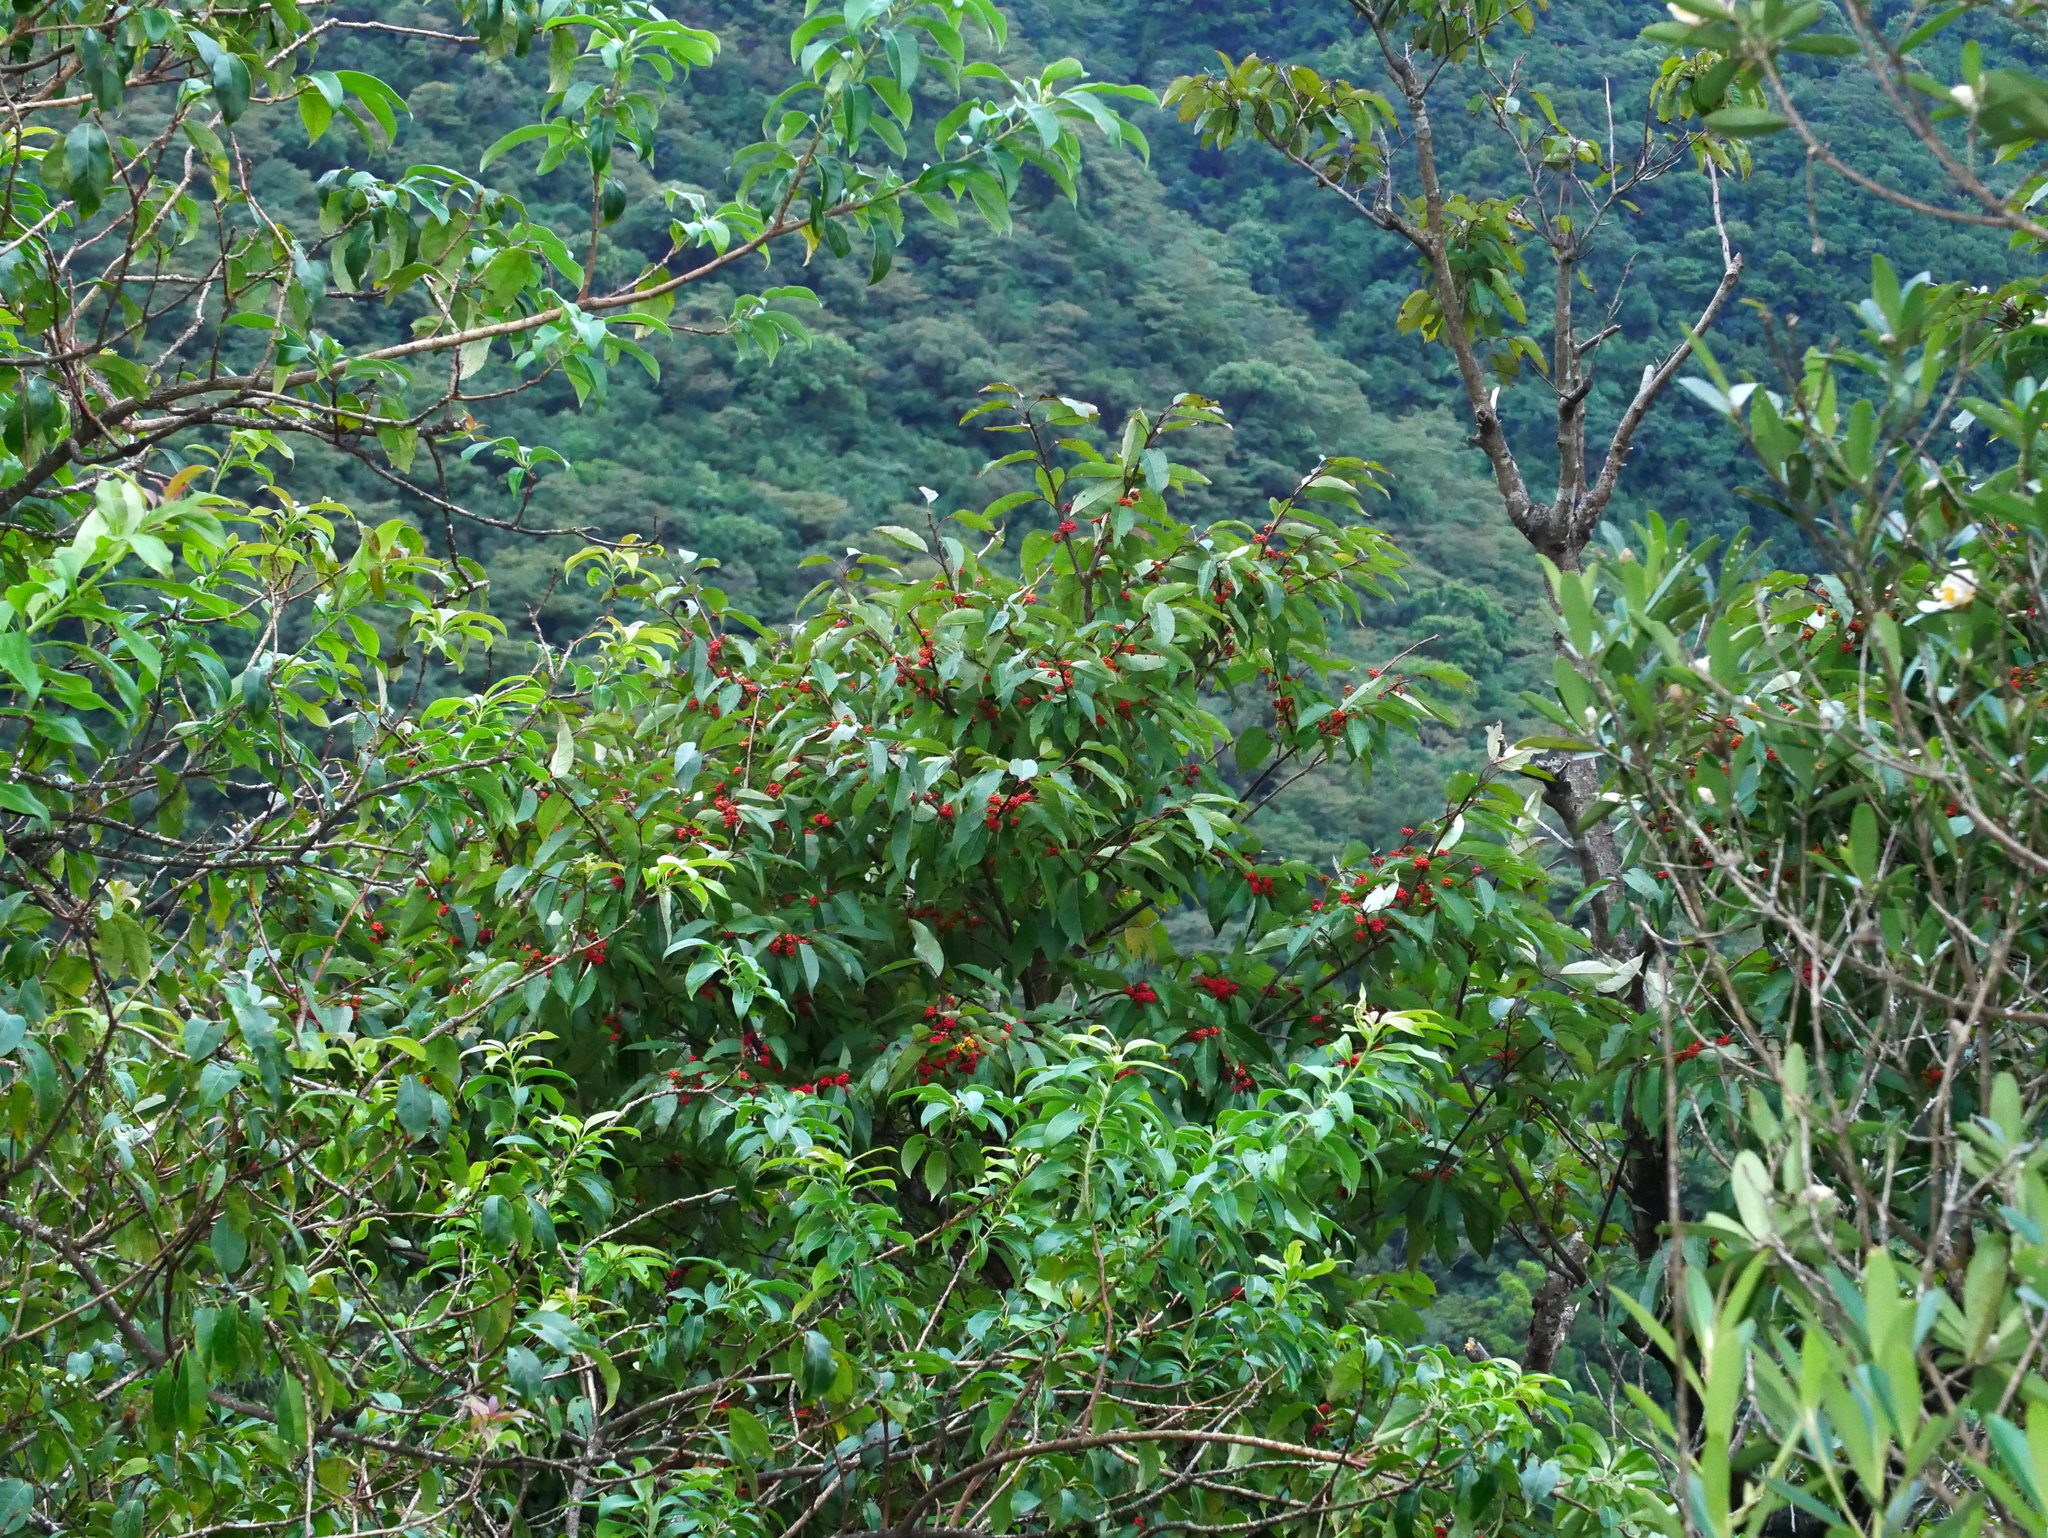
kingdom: Plantae
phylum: Tracheophyta
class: Magnoliopsida
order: Aquifoliales
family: Aquifoliaceae
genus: Ilex
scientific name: Ilex micrococca
